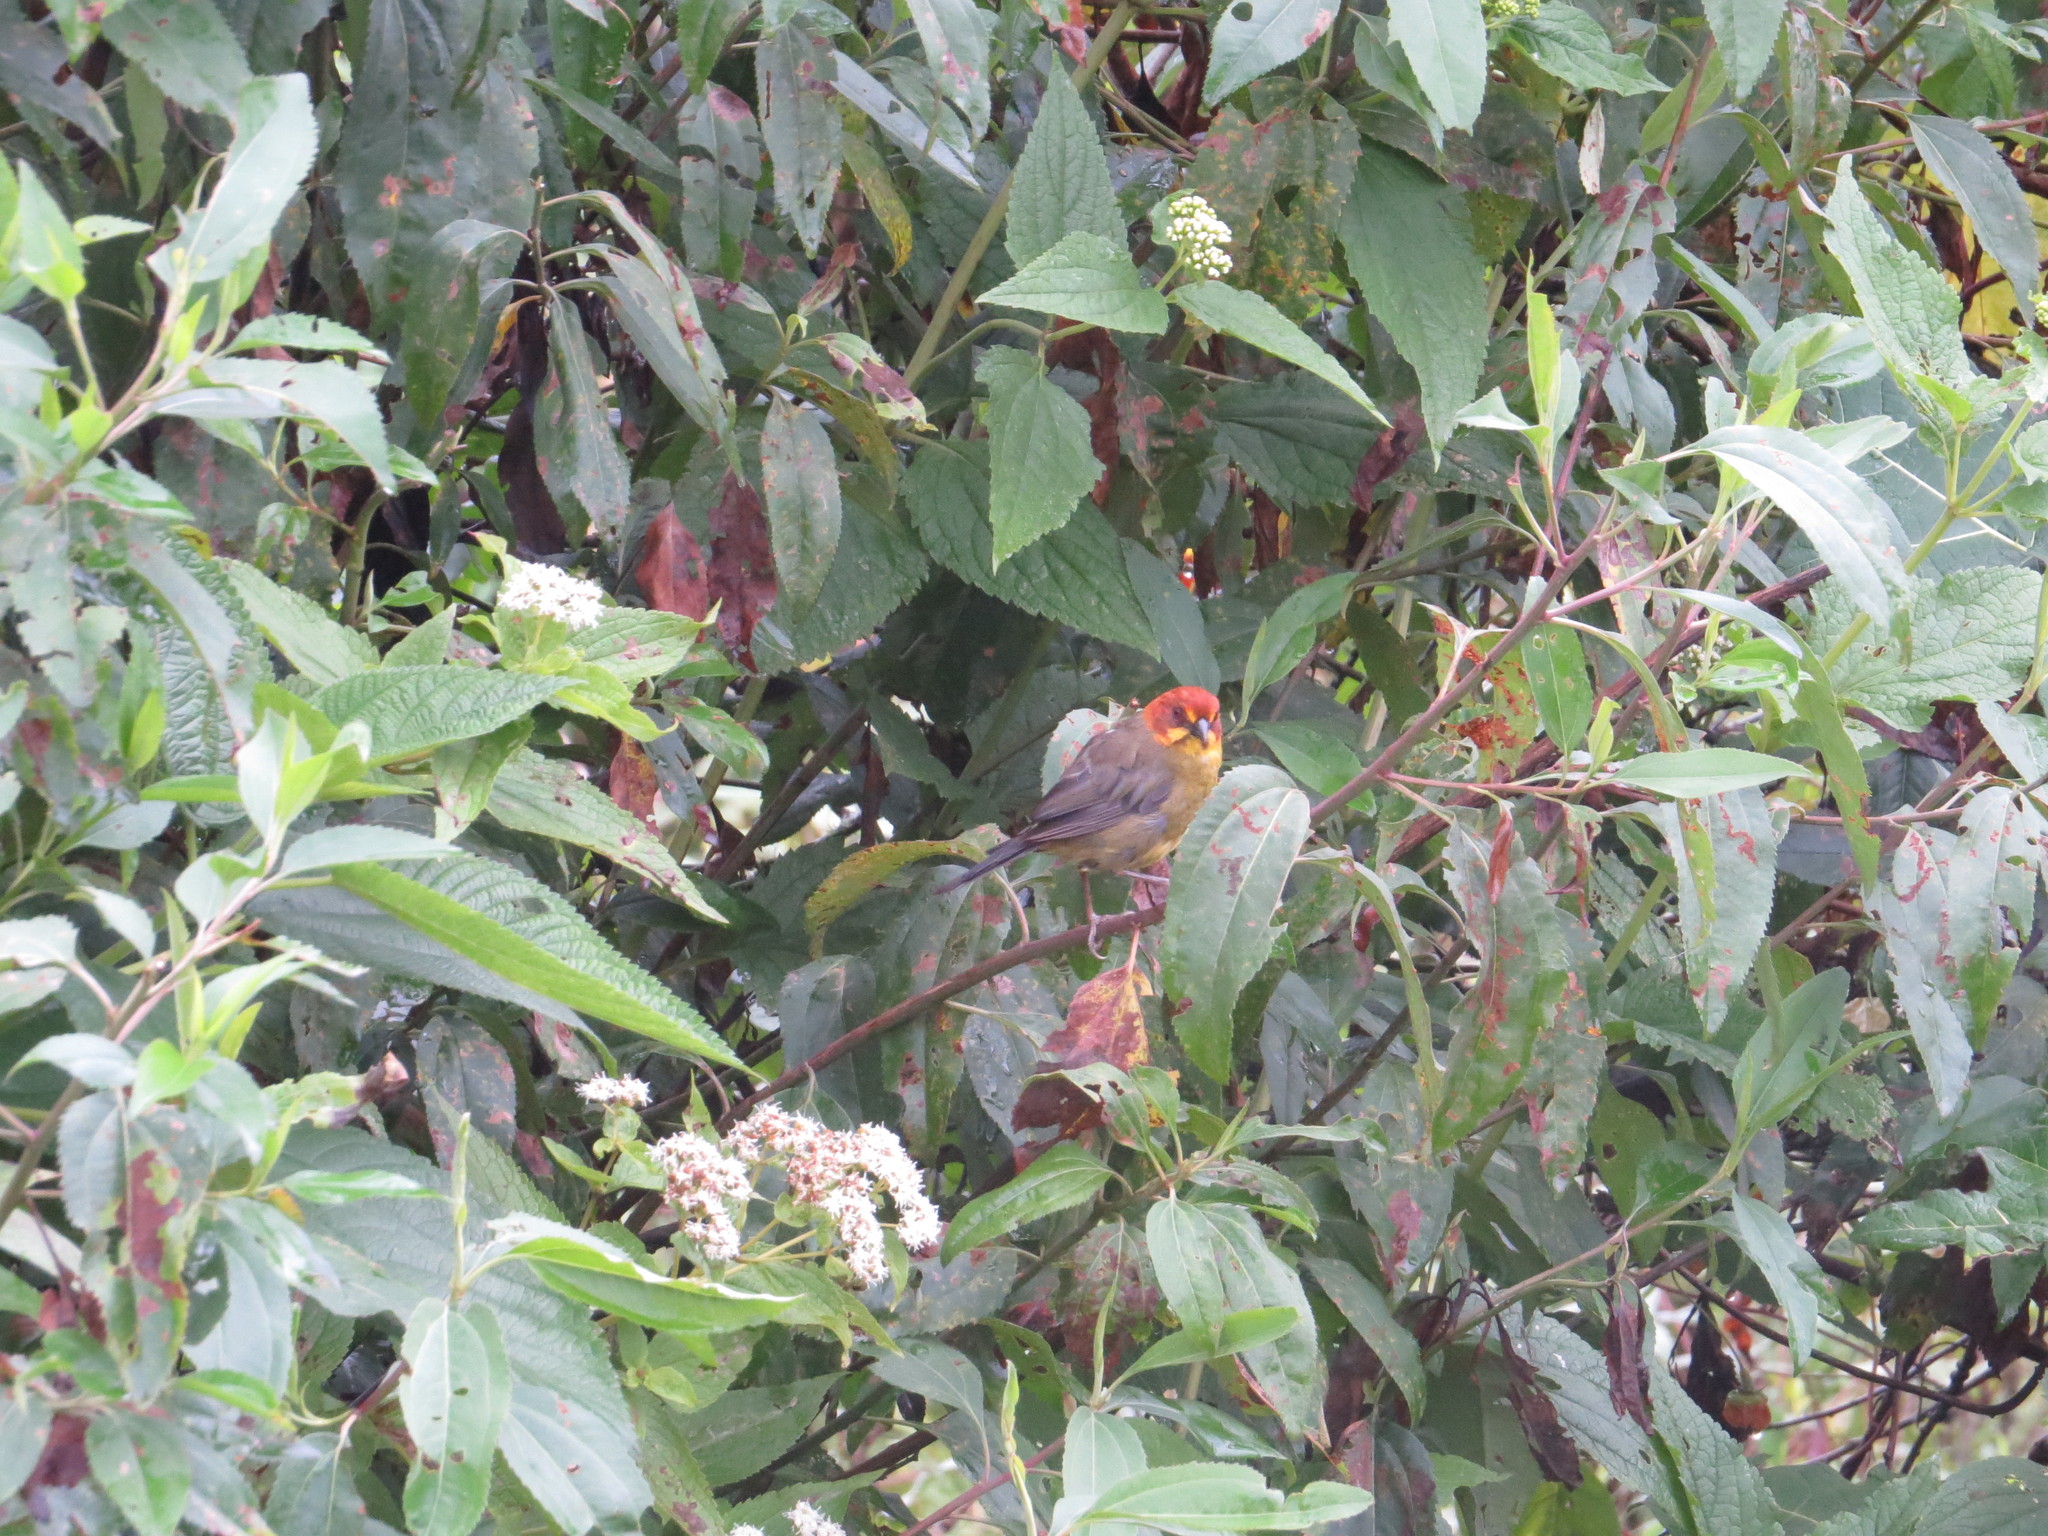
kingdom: Animalia
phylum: Chordata
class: Aves
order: Passeriformes
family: Passerellidae
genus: Atlapetes
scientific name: Atlapetes fulviceps
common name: Fulvous-headed brushfinch
